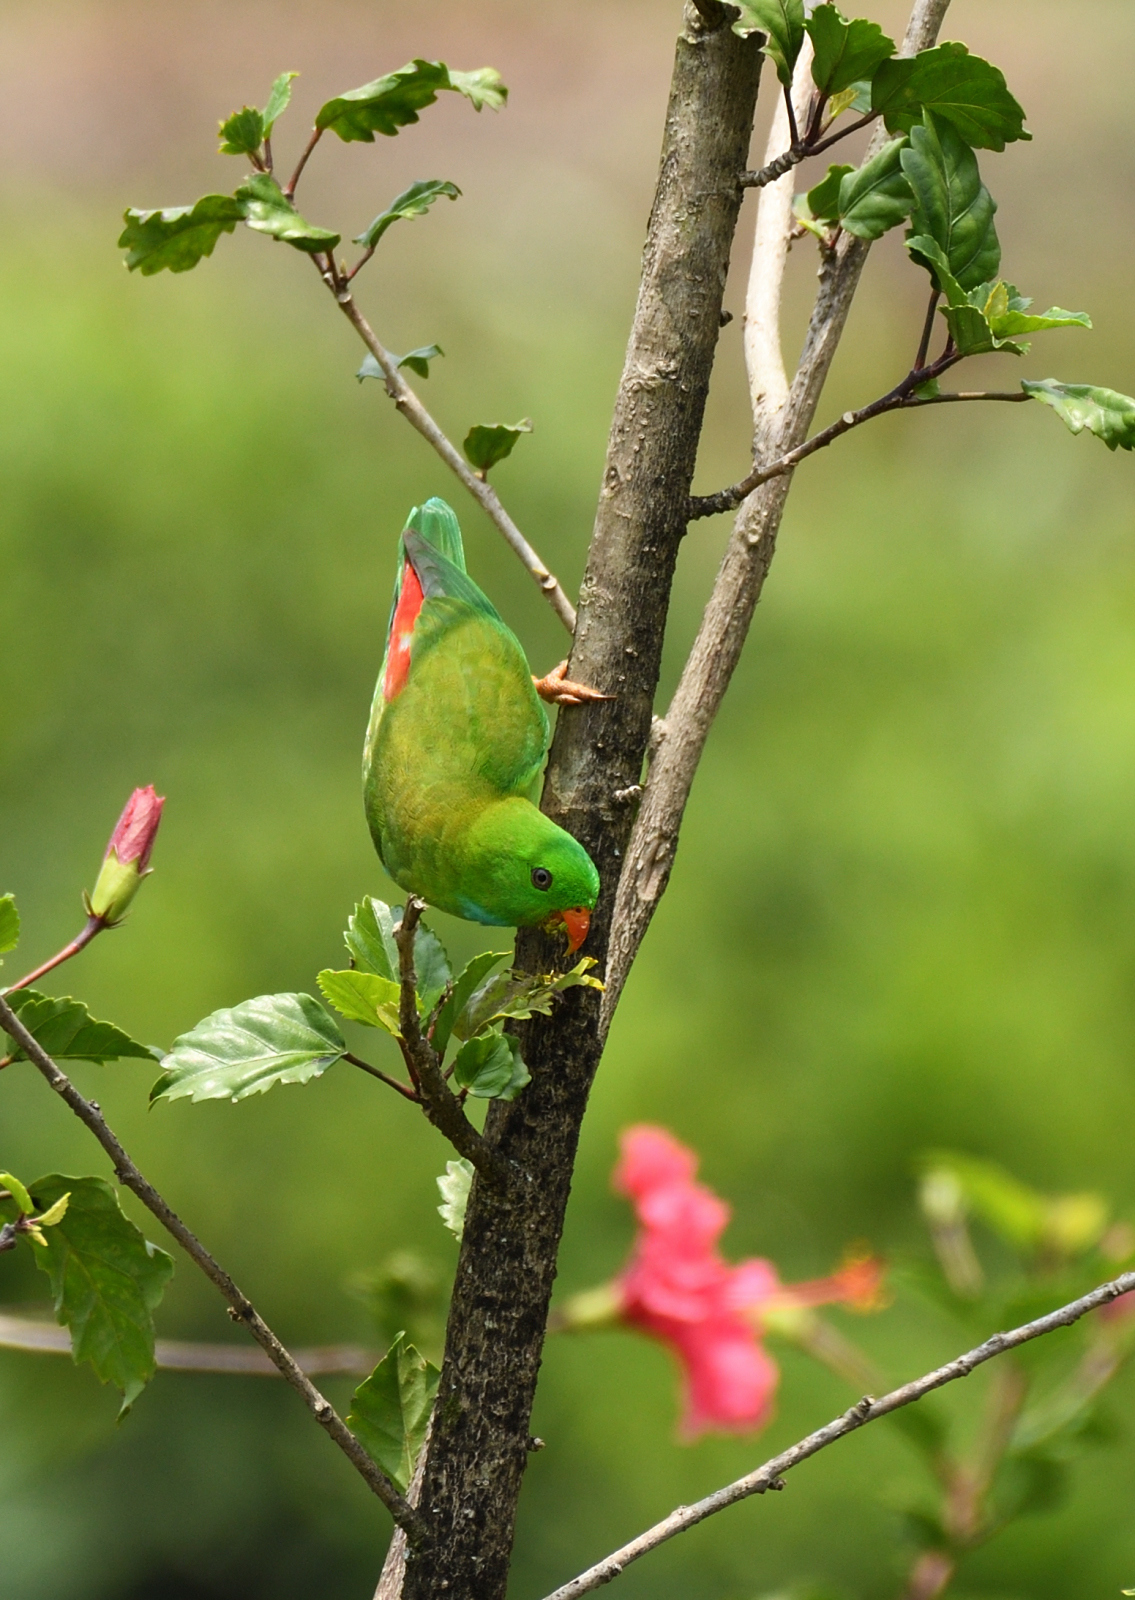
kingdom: Animalia
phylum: Chordata
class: Aves
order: Psittaciformes
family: Psittacidae
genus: Loriculus
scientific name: Loriculus vernalis
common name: Vernal hanging parrot
